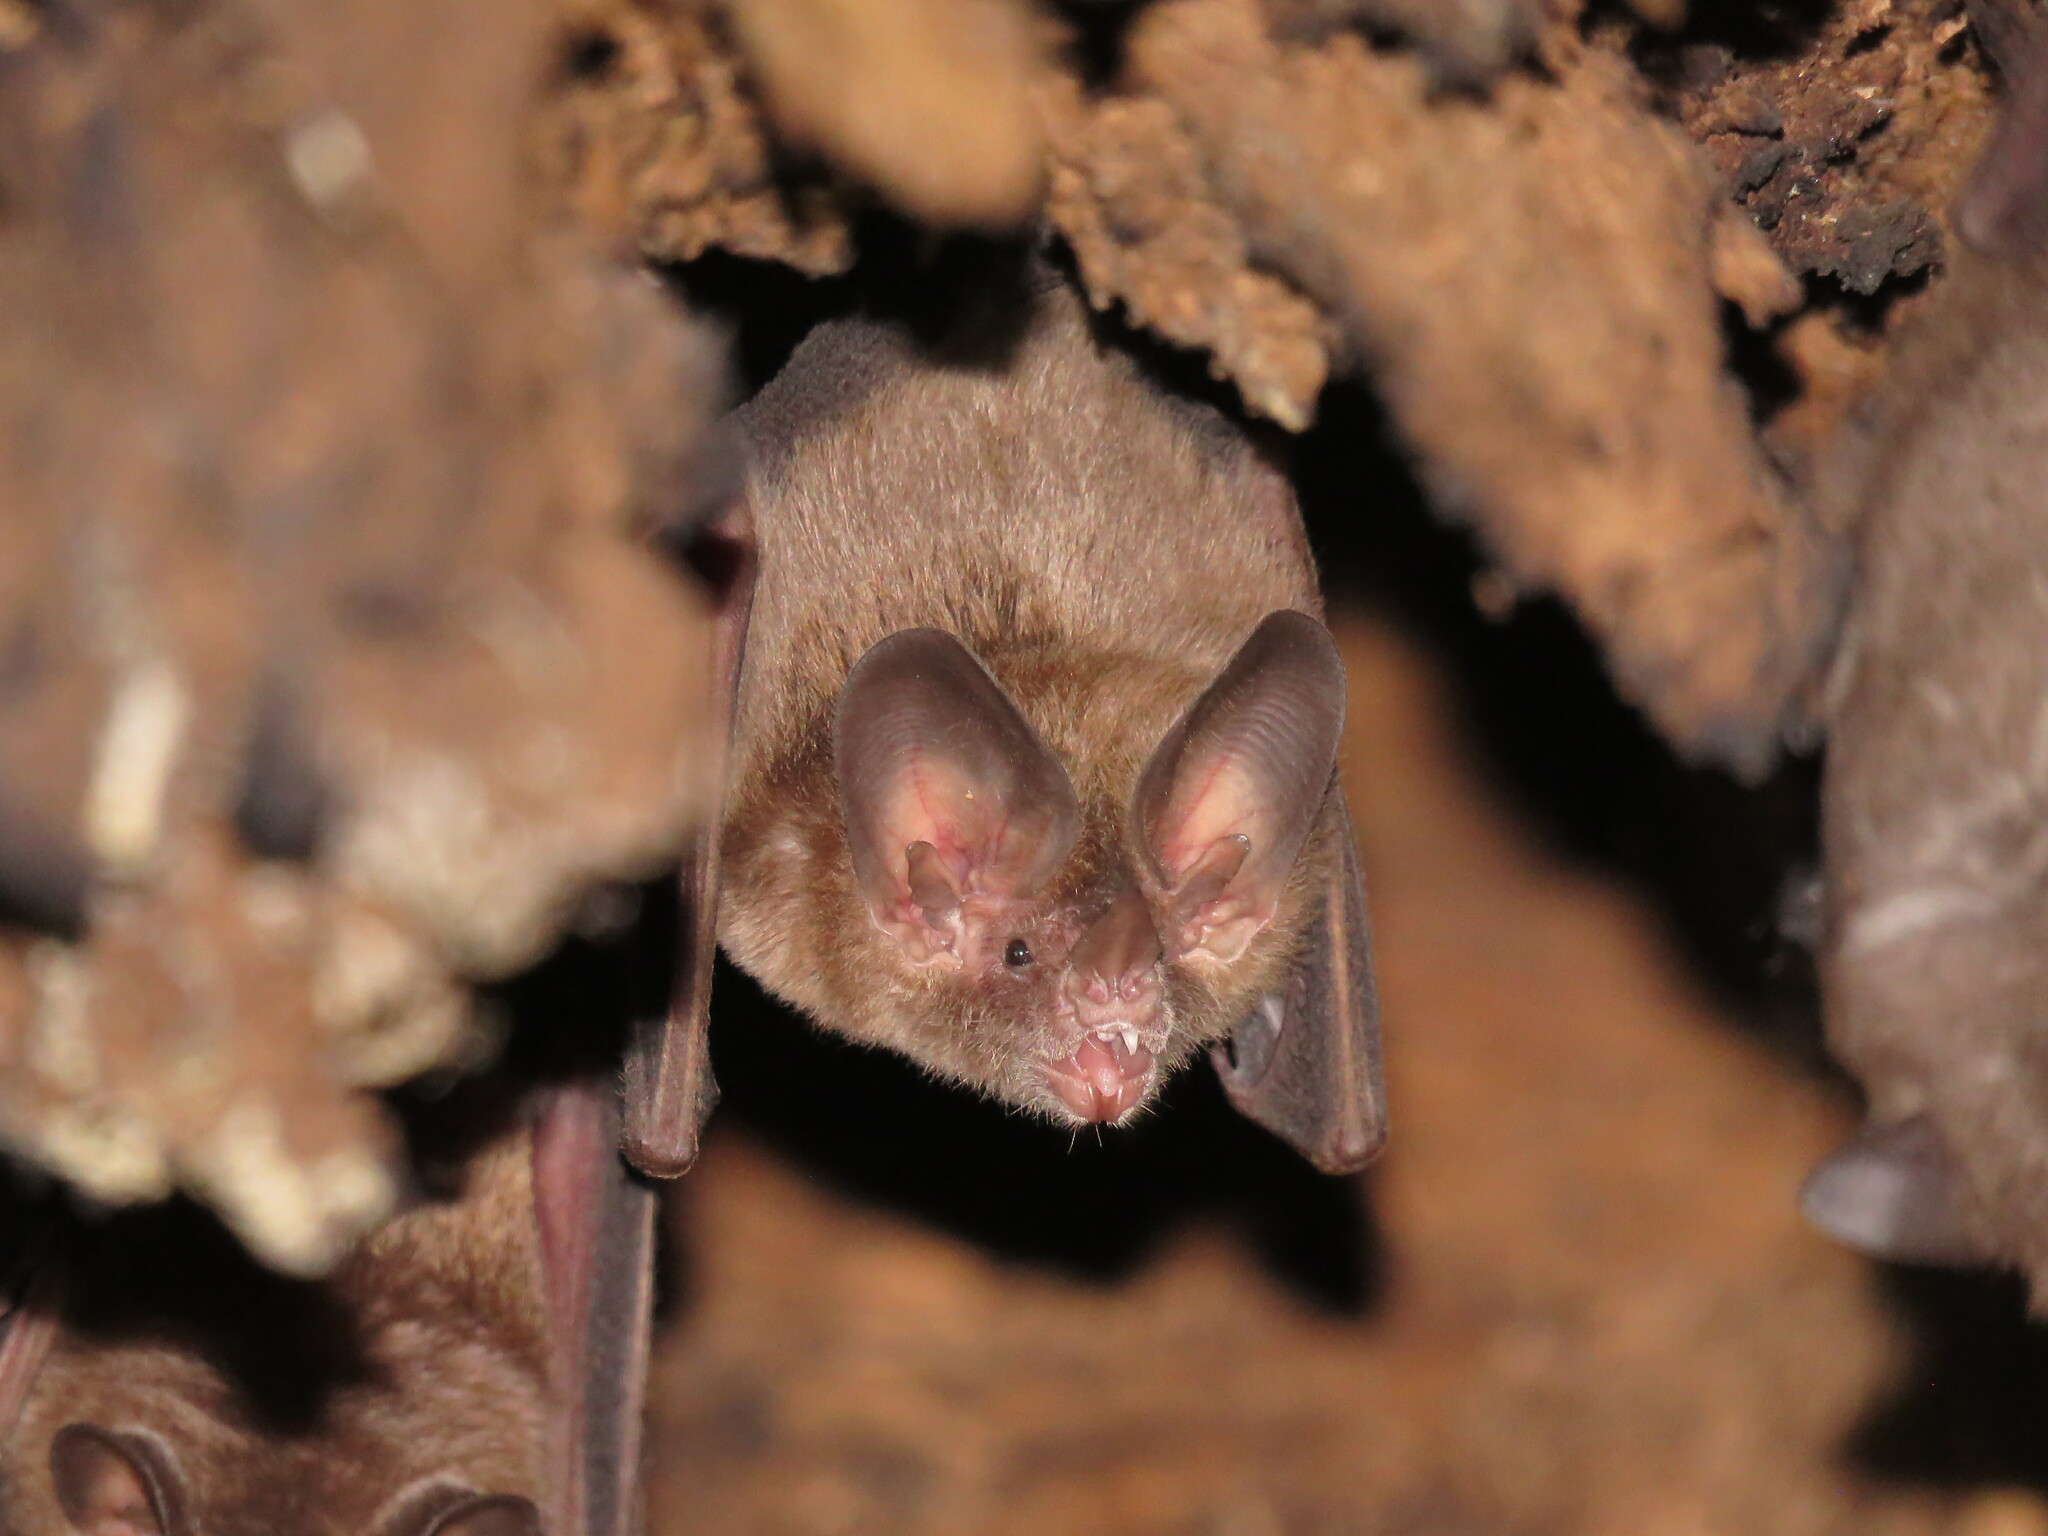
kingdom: Animalia
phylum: Chordata
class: Mammalia
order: Chiroptera
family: Phyllostomidae
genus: Micronycteris
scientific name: Micronycteris microtis
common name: Common big-eared bat
